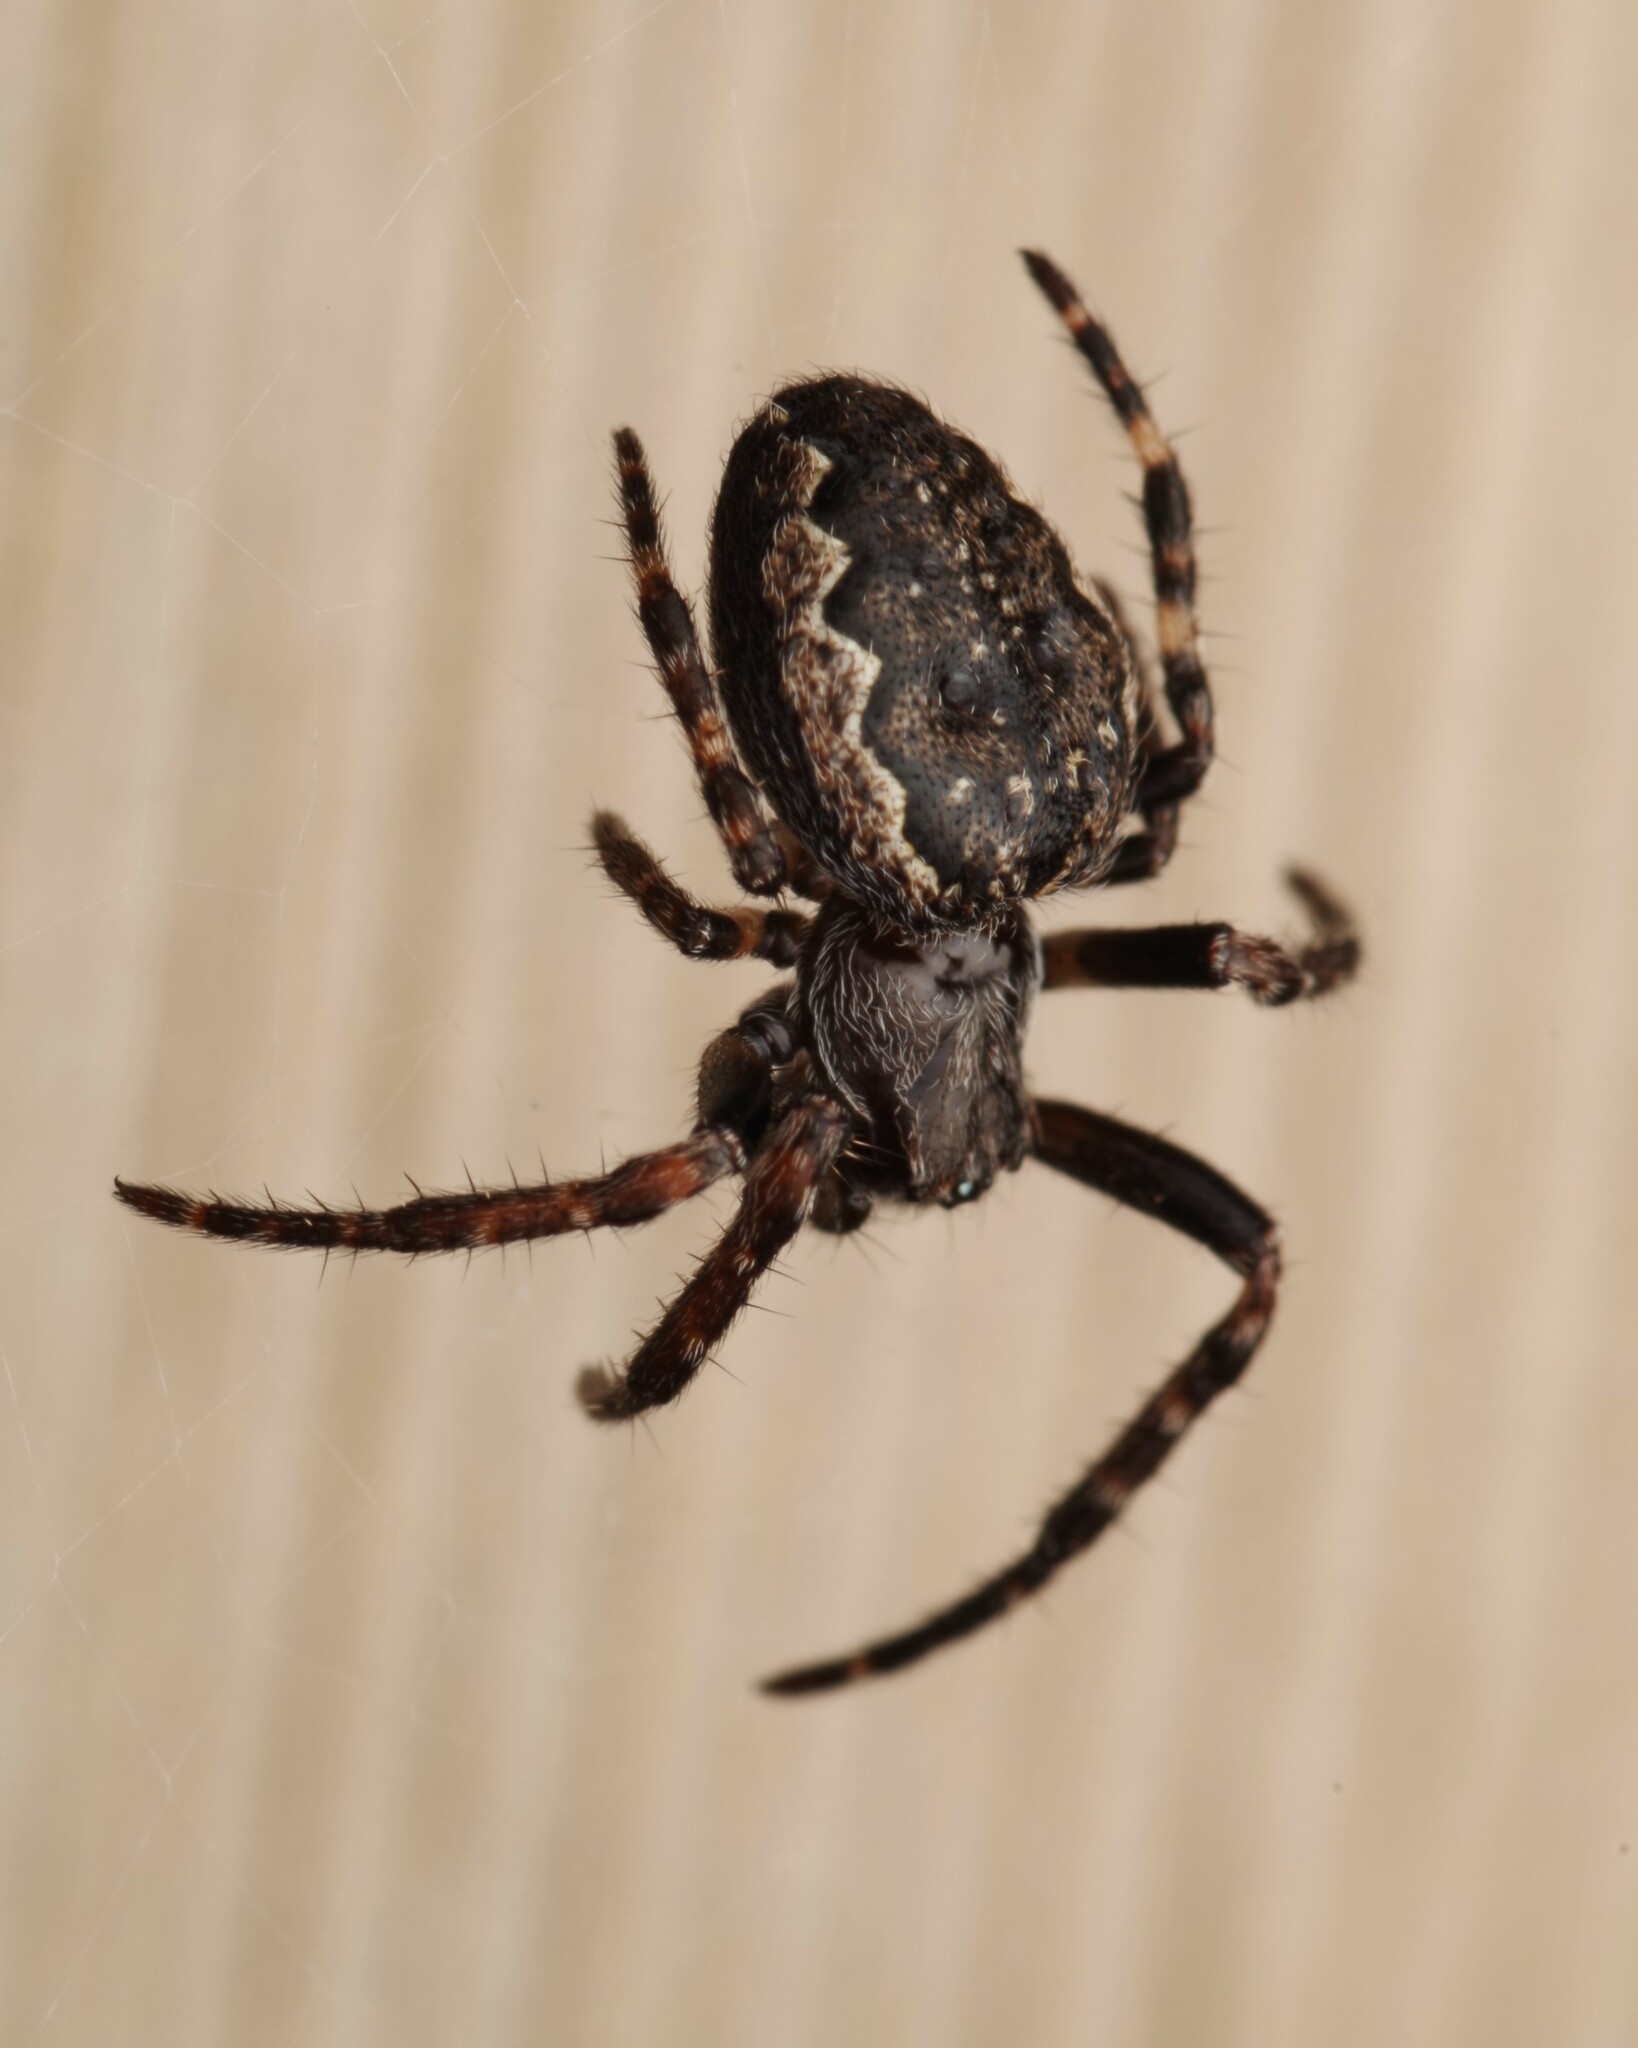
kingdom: Animalia
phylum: Arthropoda
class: Arachnida
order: Araneae
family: Araneidae
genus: Nuctenea
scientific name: Nuctenea umbratica
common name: Toad spider
